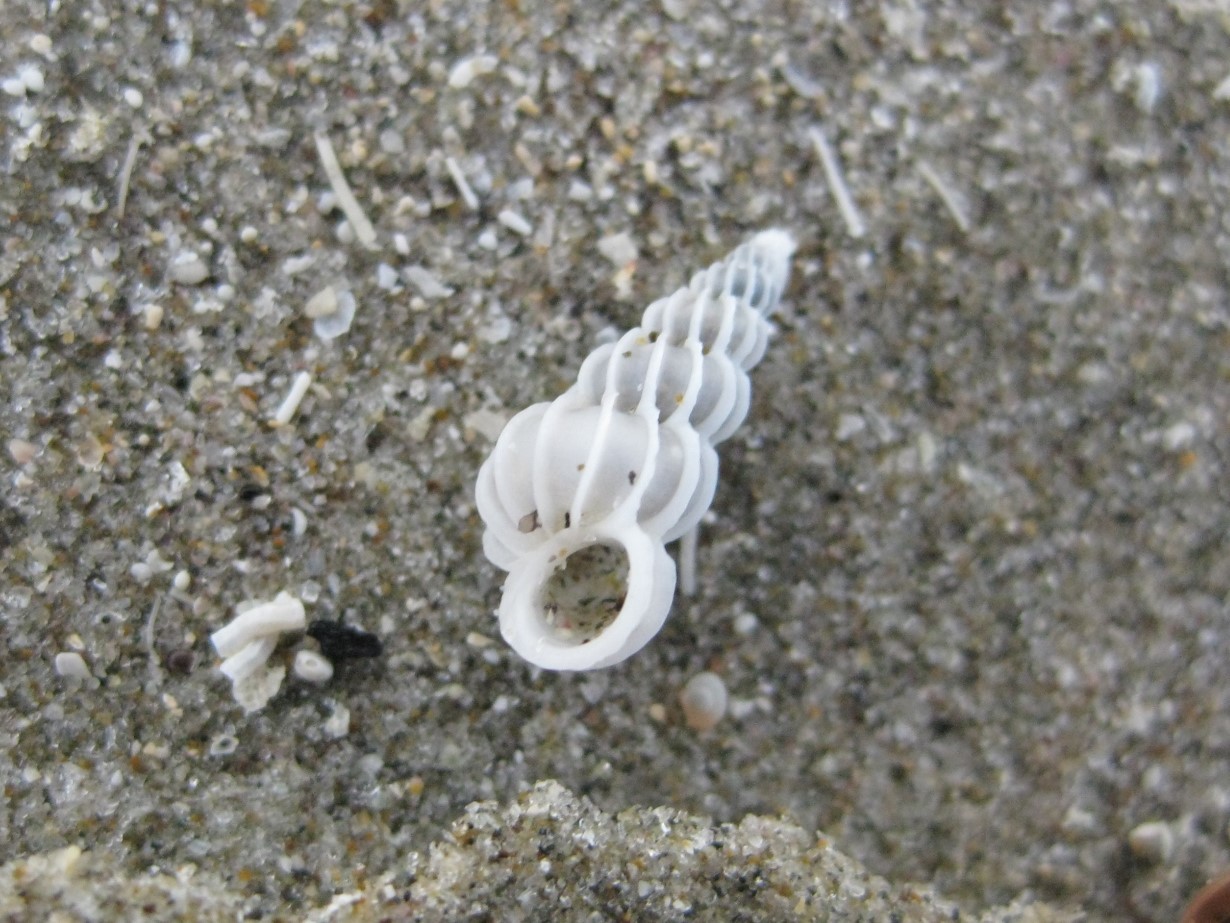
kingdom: Animalia
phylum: Mollusca
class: Gastropoda
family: Epitoniidae
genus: Epitonium
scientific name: Epitonium minorum
